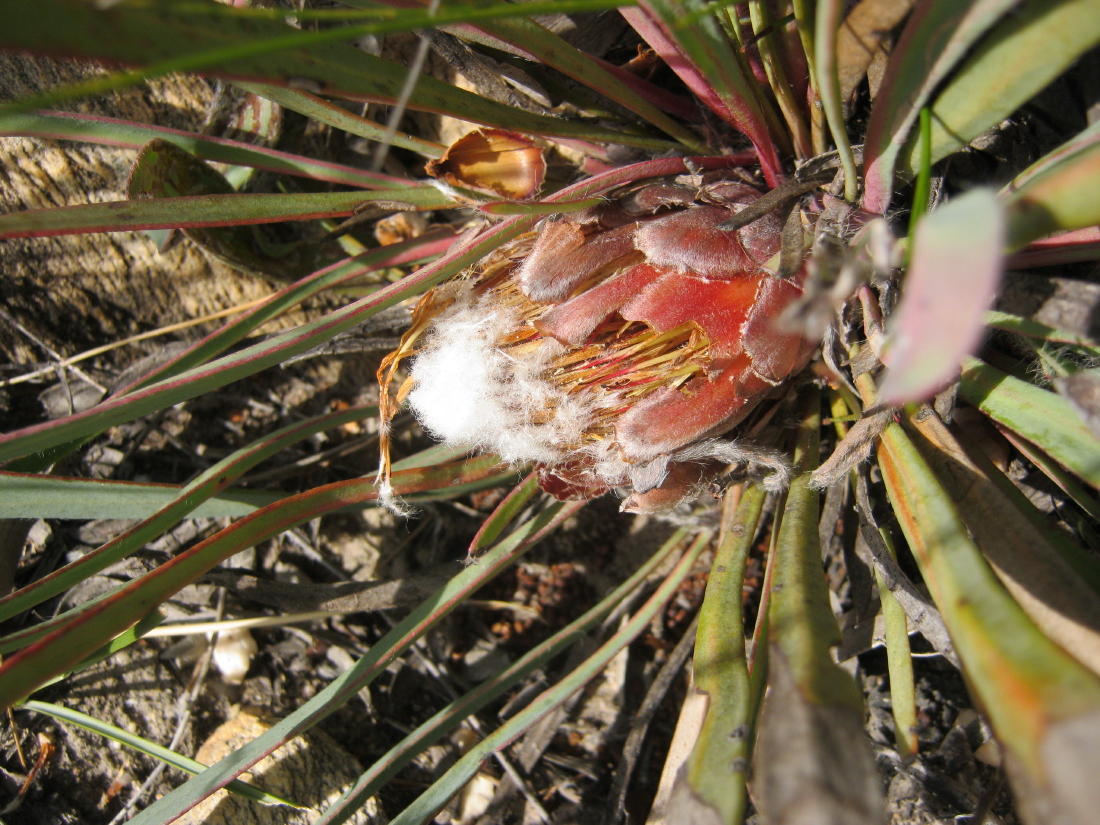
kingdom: Plantae
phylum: Tracheophyta
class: Magnoliopsida
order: Proteales
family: Proteaceae
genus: Protea
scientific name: Protea vogtsiae
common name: Kouga sugarbush
